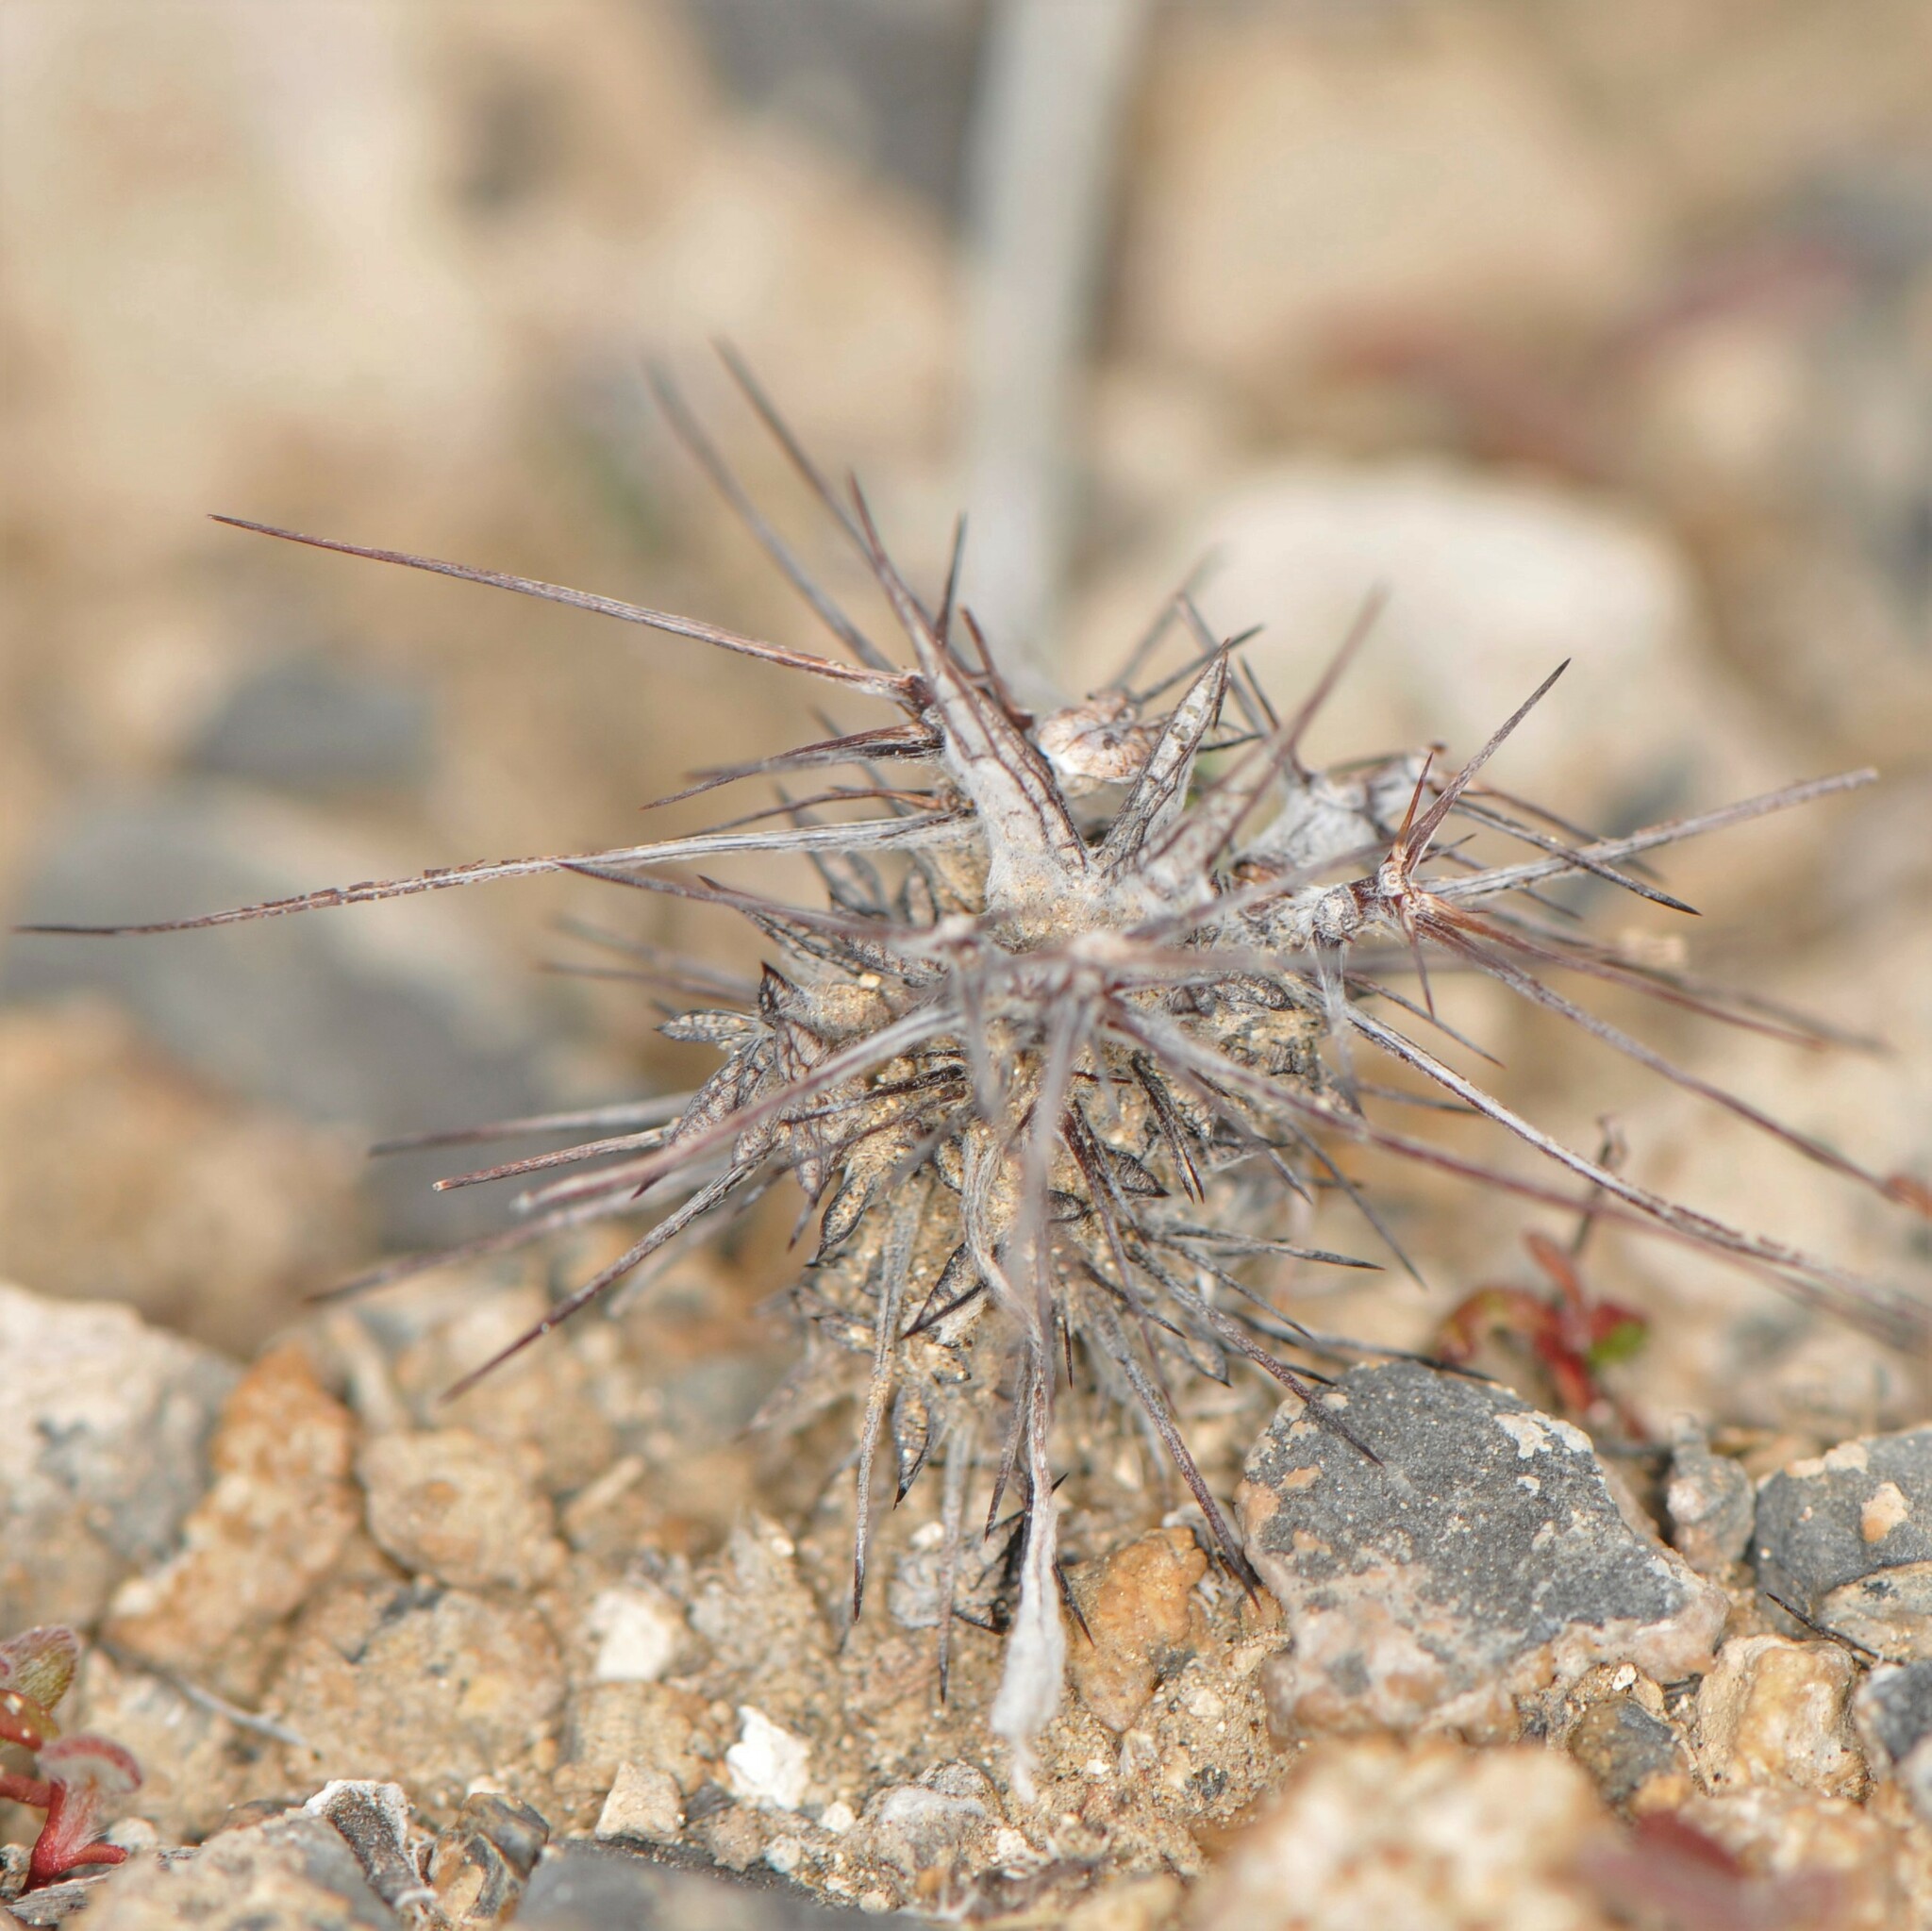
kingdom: Plantae
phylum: Tracheophyta
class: Magnoliopsida
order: Caryophyllales
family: Polygonaceae
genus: Chorizanthe
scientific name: Chorizanthe rigida
